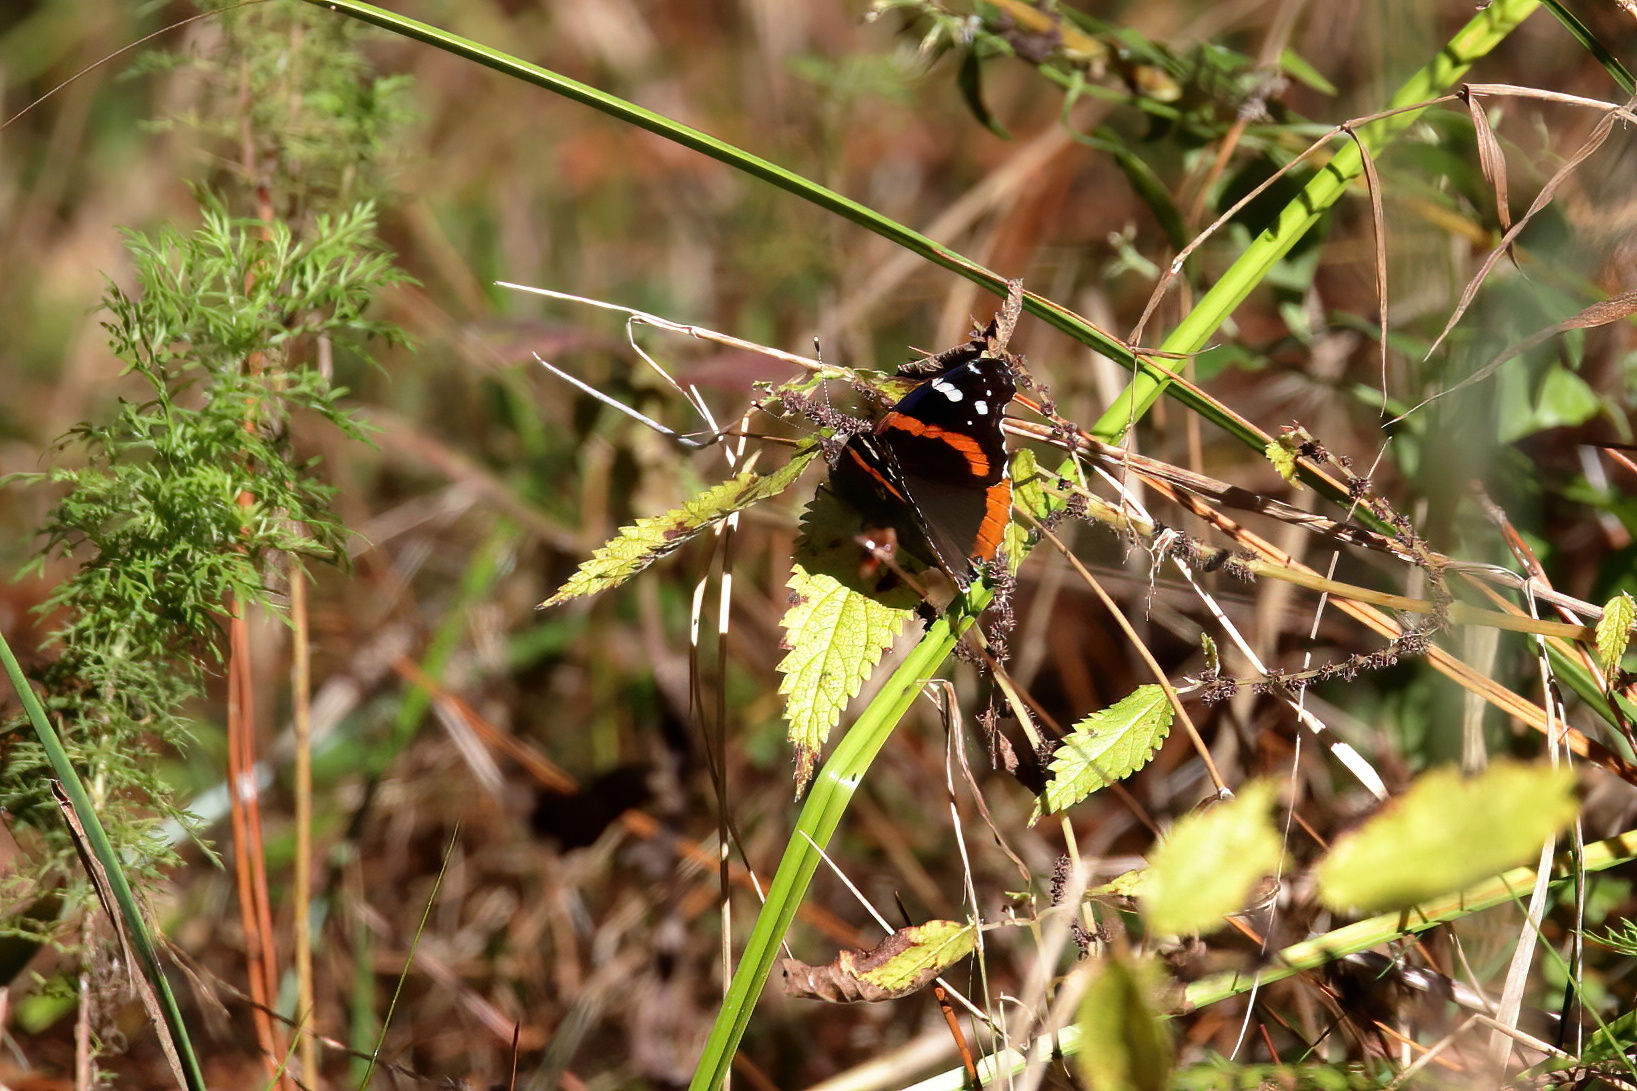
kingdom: Animalia
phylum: Arthropoda
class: Insecta
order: Lepidoptera
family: Nymphalidae
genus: Vanessa
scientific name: Vanessa atalanta
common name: Red admiral
